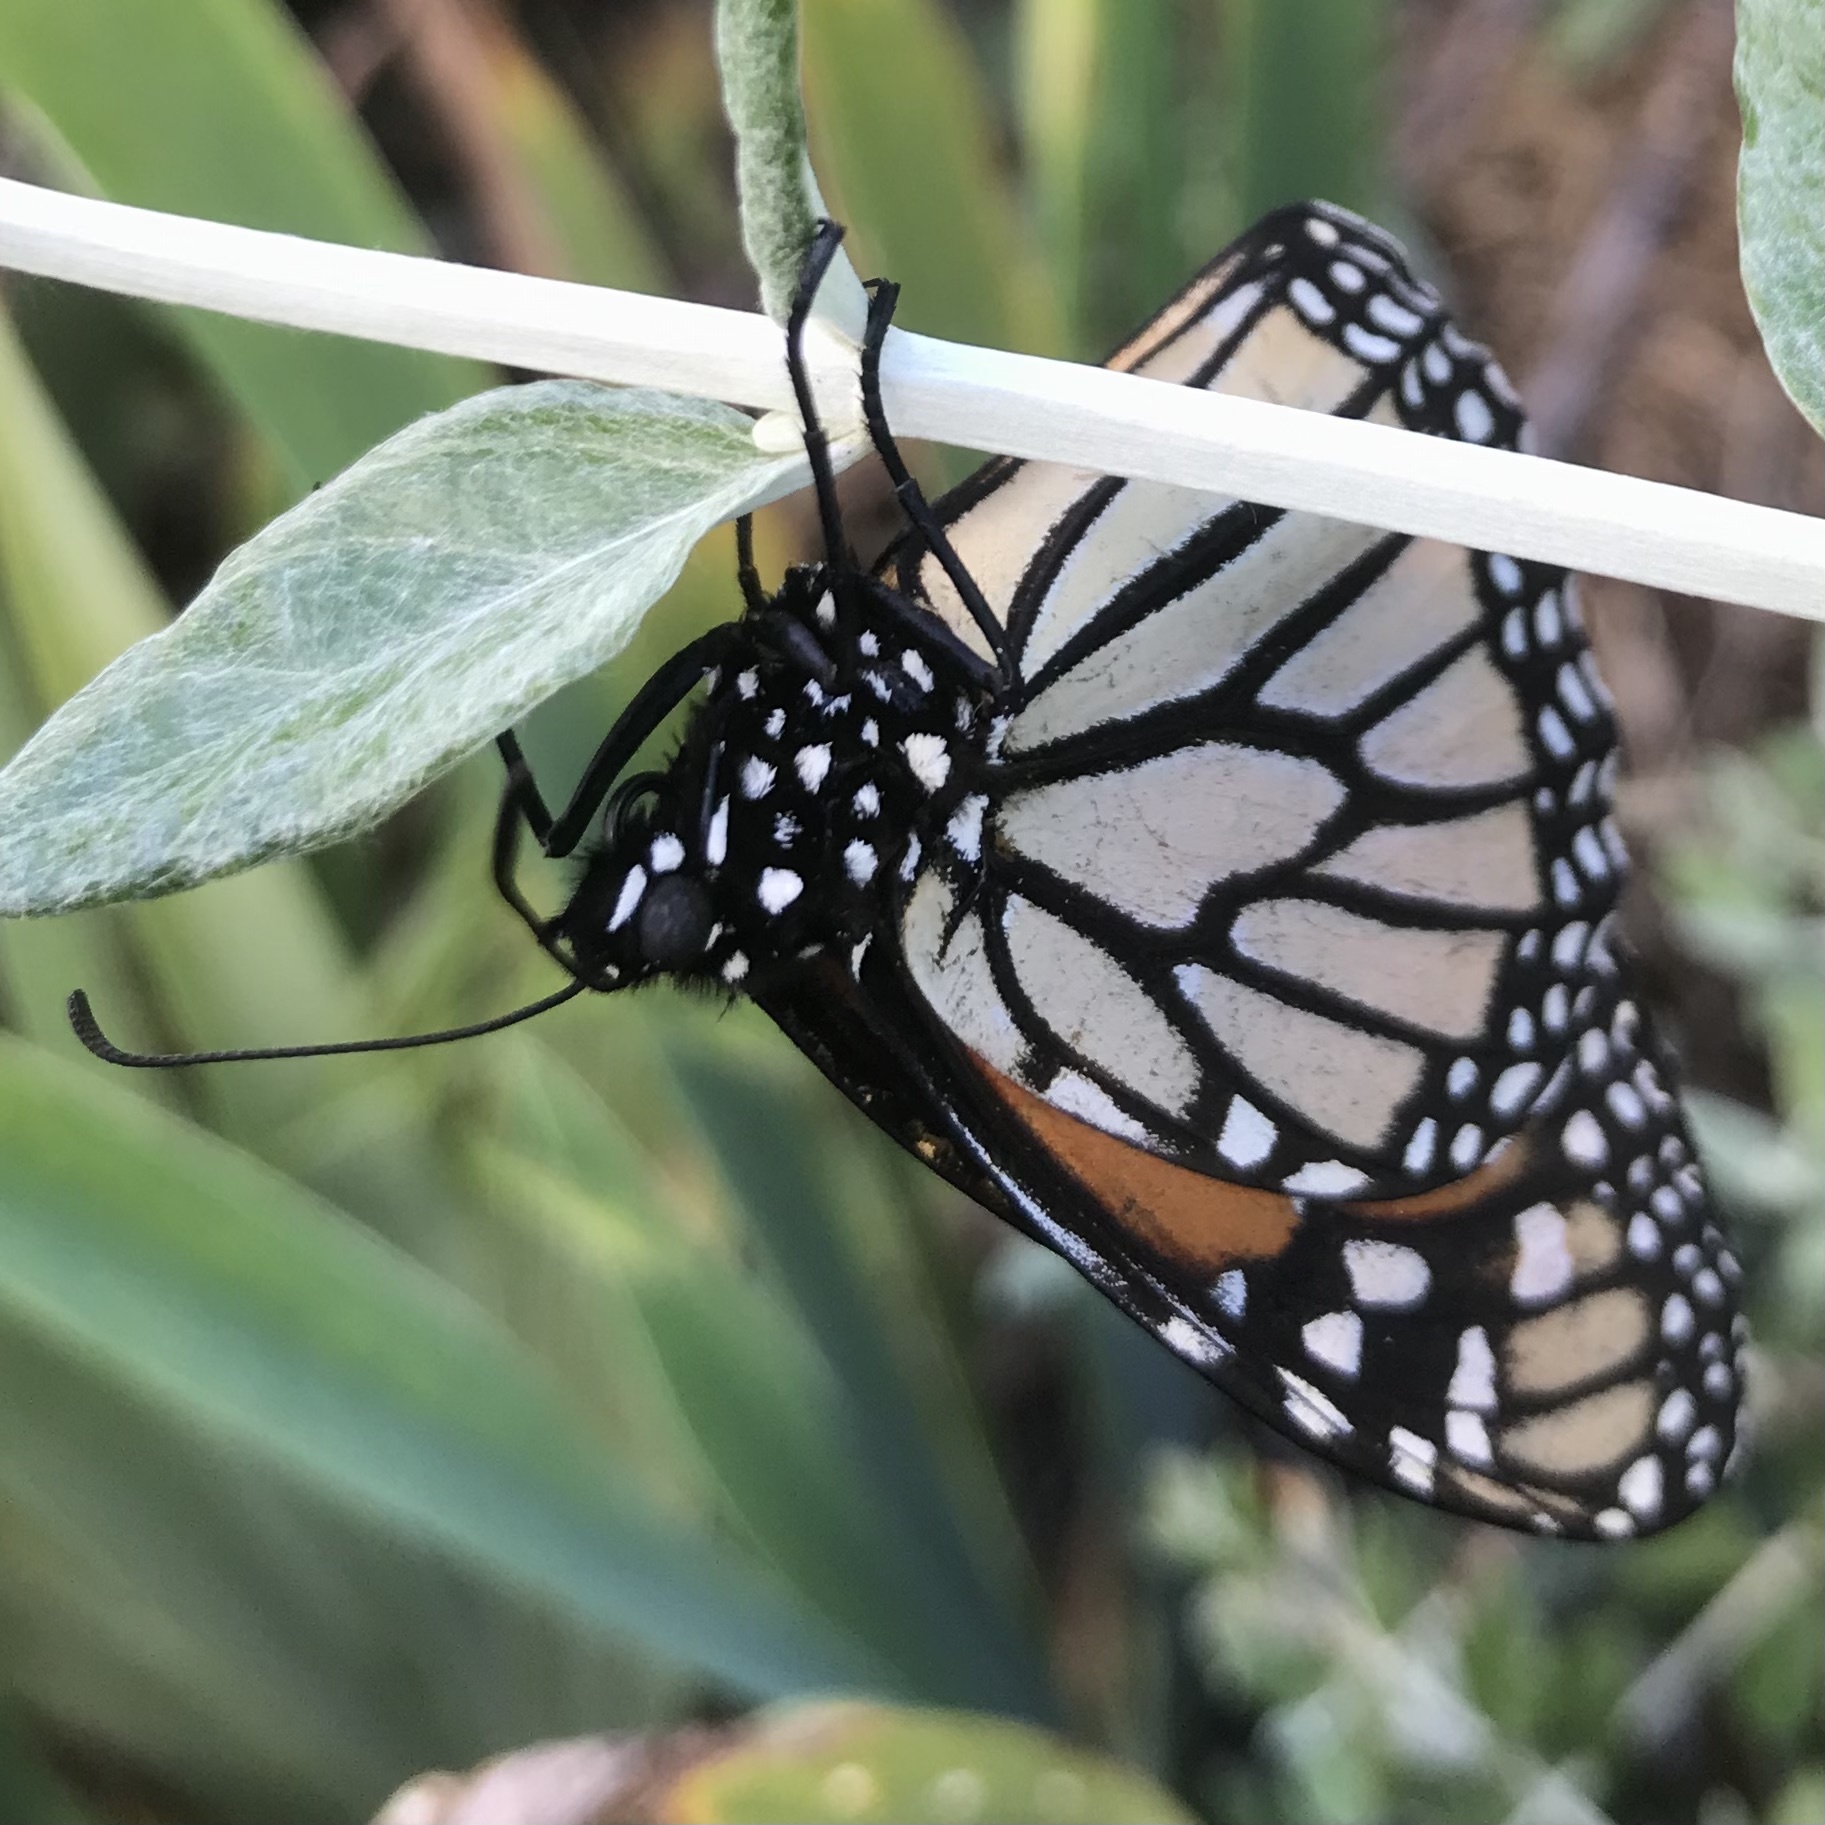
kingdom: Animalia
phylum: Arthropoda
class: Insecta
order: Lepidoptera
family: Nymphalidae
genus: Danaus
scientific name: Danaus plexippus
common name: Monarch
